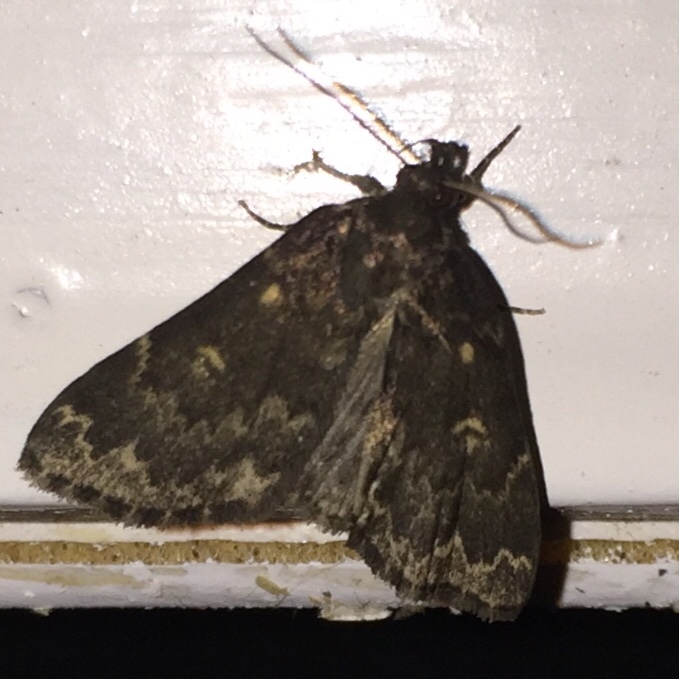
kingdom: Animalia
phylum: Arthropoda
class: Insecta
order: Lepidoptera
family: Erebidae
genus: Idia
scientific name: Idia lubricalis
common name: Twin-striped tabby
